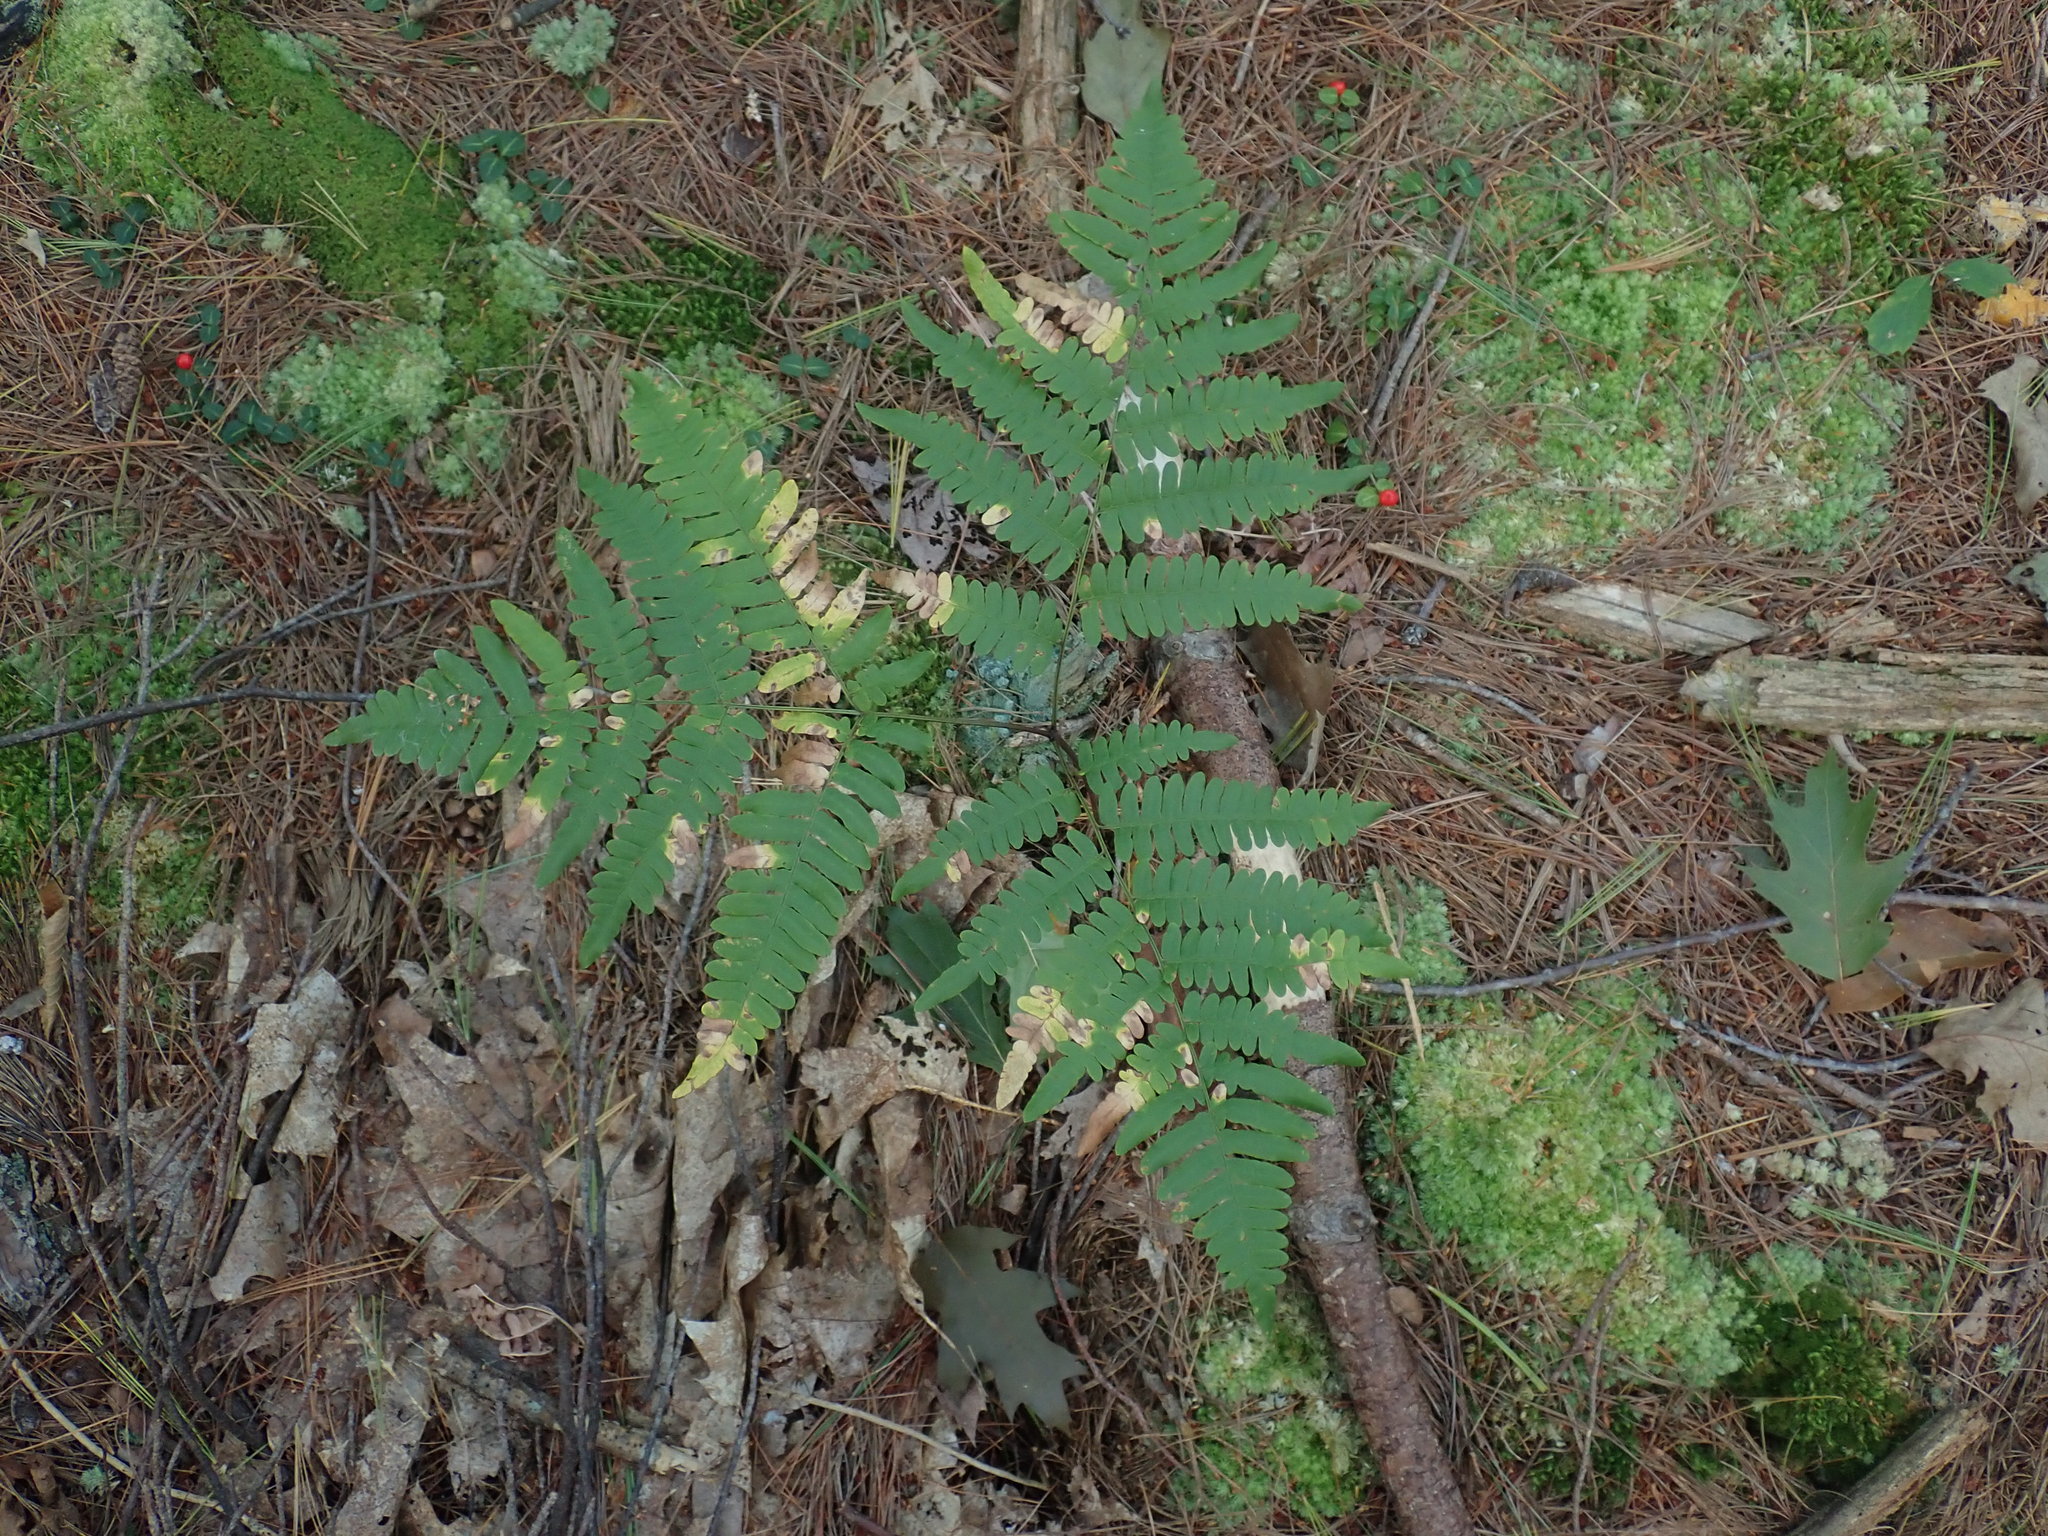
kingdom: Plantae
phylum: Tracheophyta
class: Polypodiopsida
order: Polypodiales
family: Dennstaedtiaceae
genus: Pteridium
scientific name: Pteridium aquilinum
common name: Bracken
